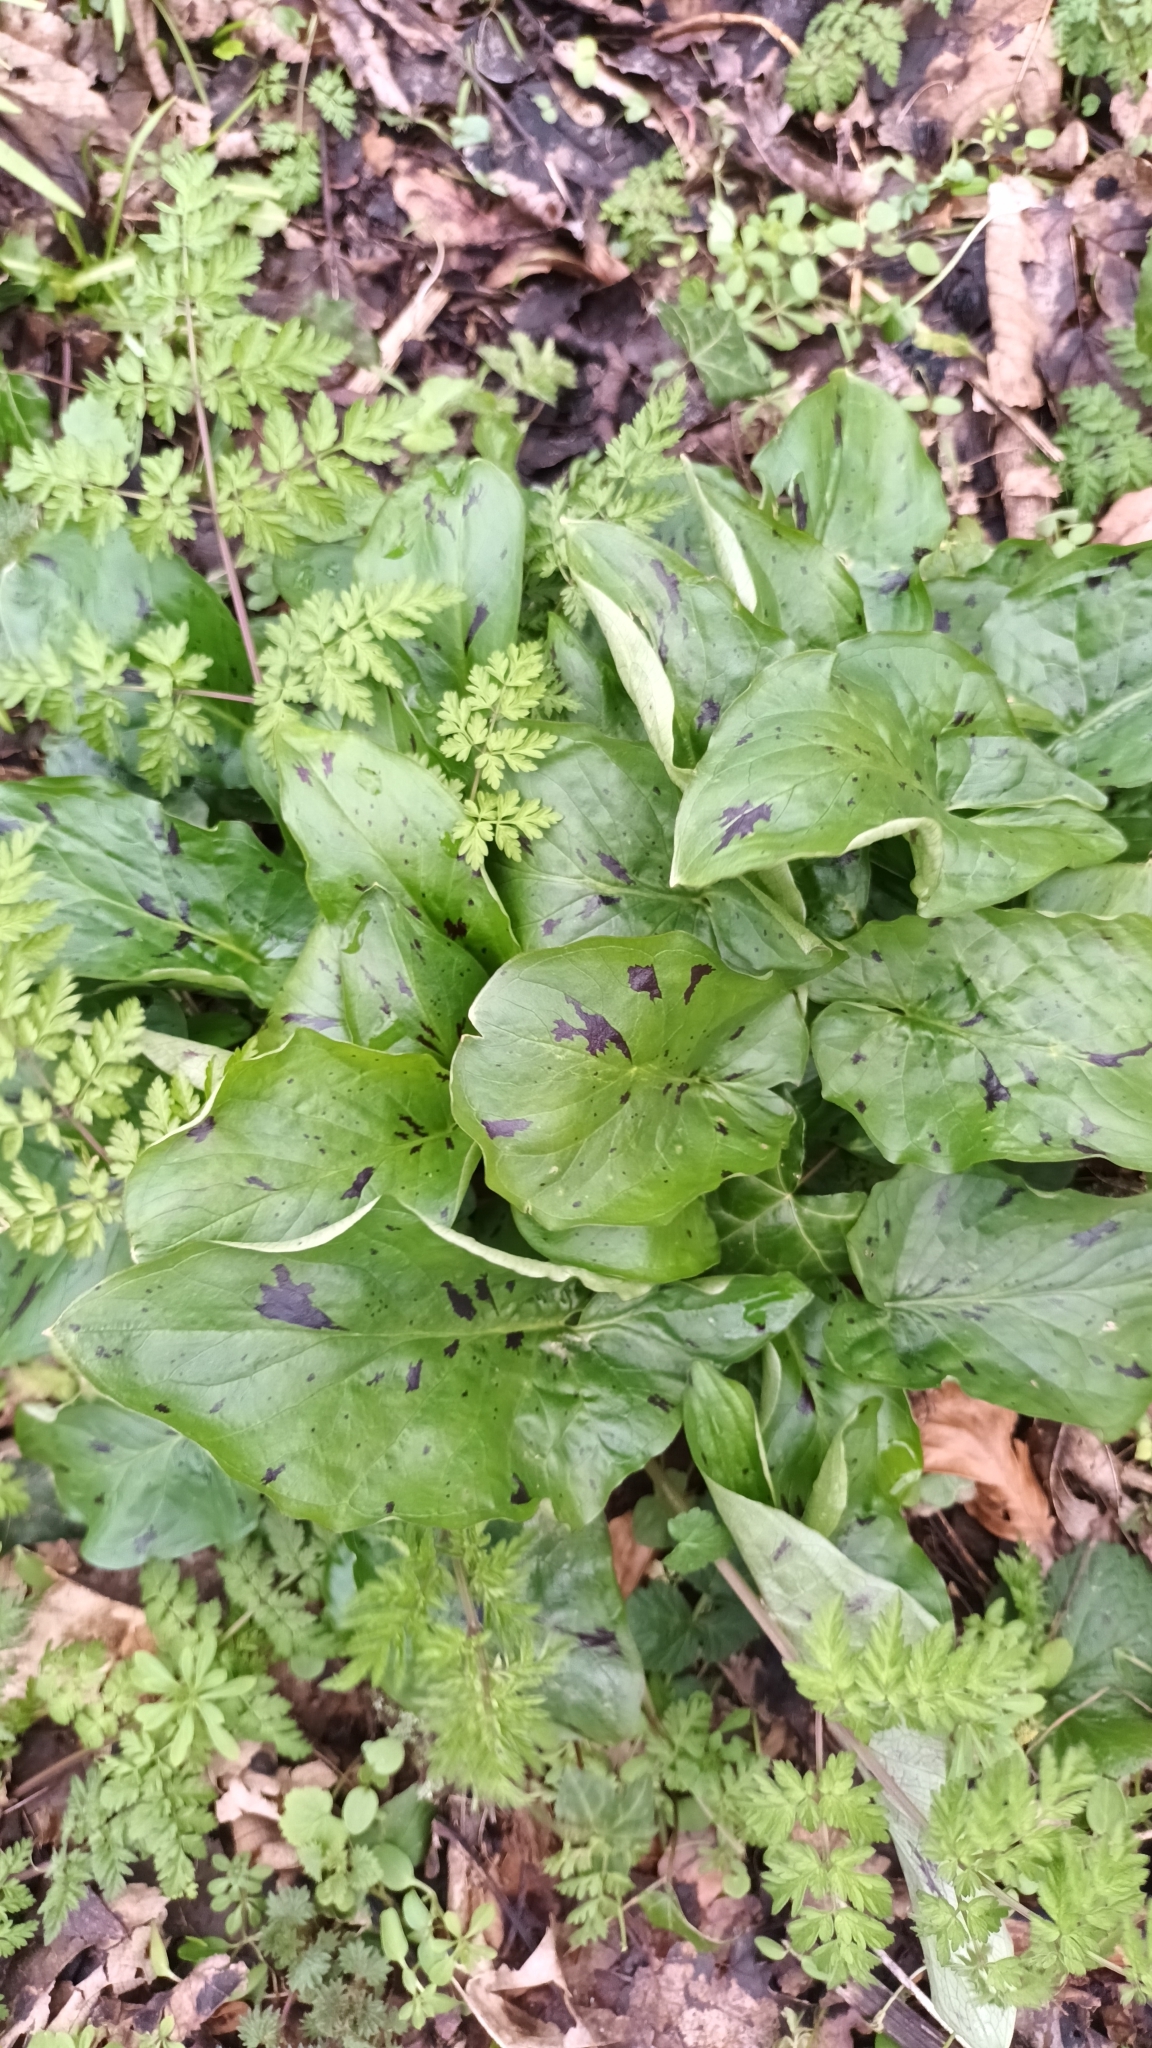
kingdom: Plantae
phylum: Tracheophyta
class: Liliopsida
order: Alismatales
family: Araceae
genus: Arum
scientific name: Arum maculatum
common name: Lords-and-ladies
